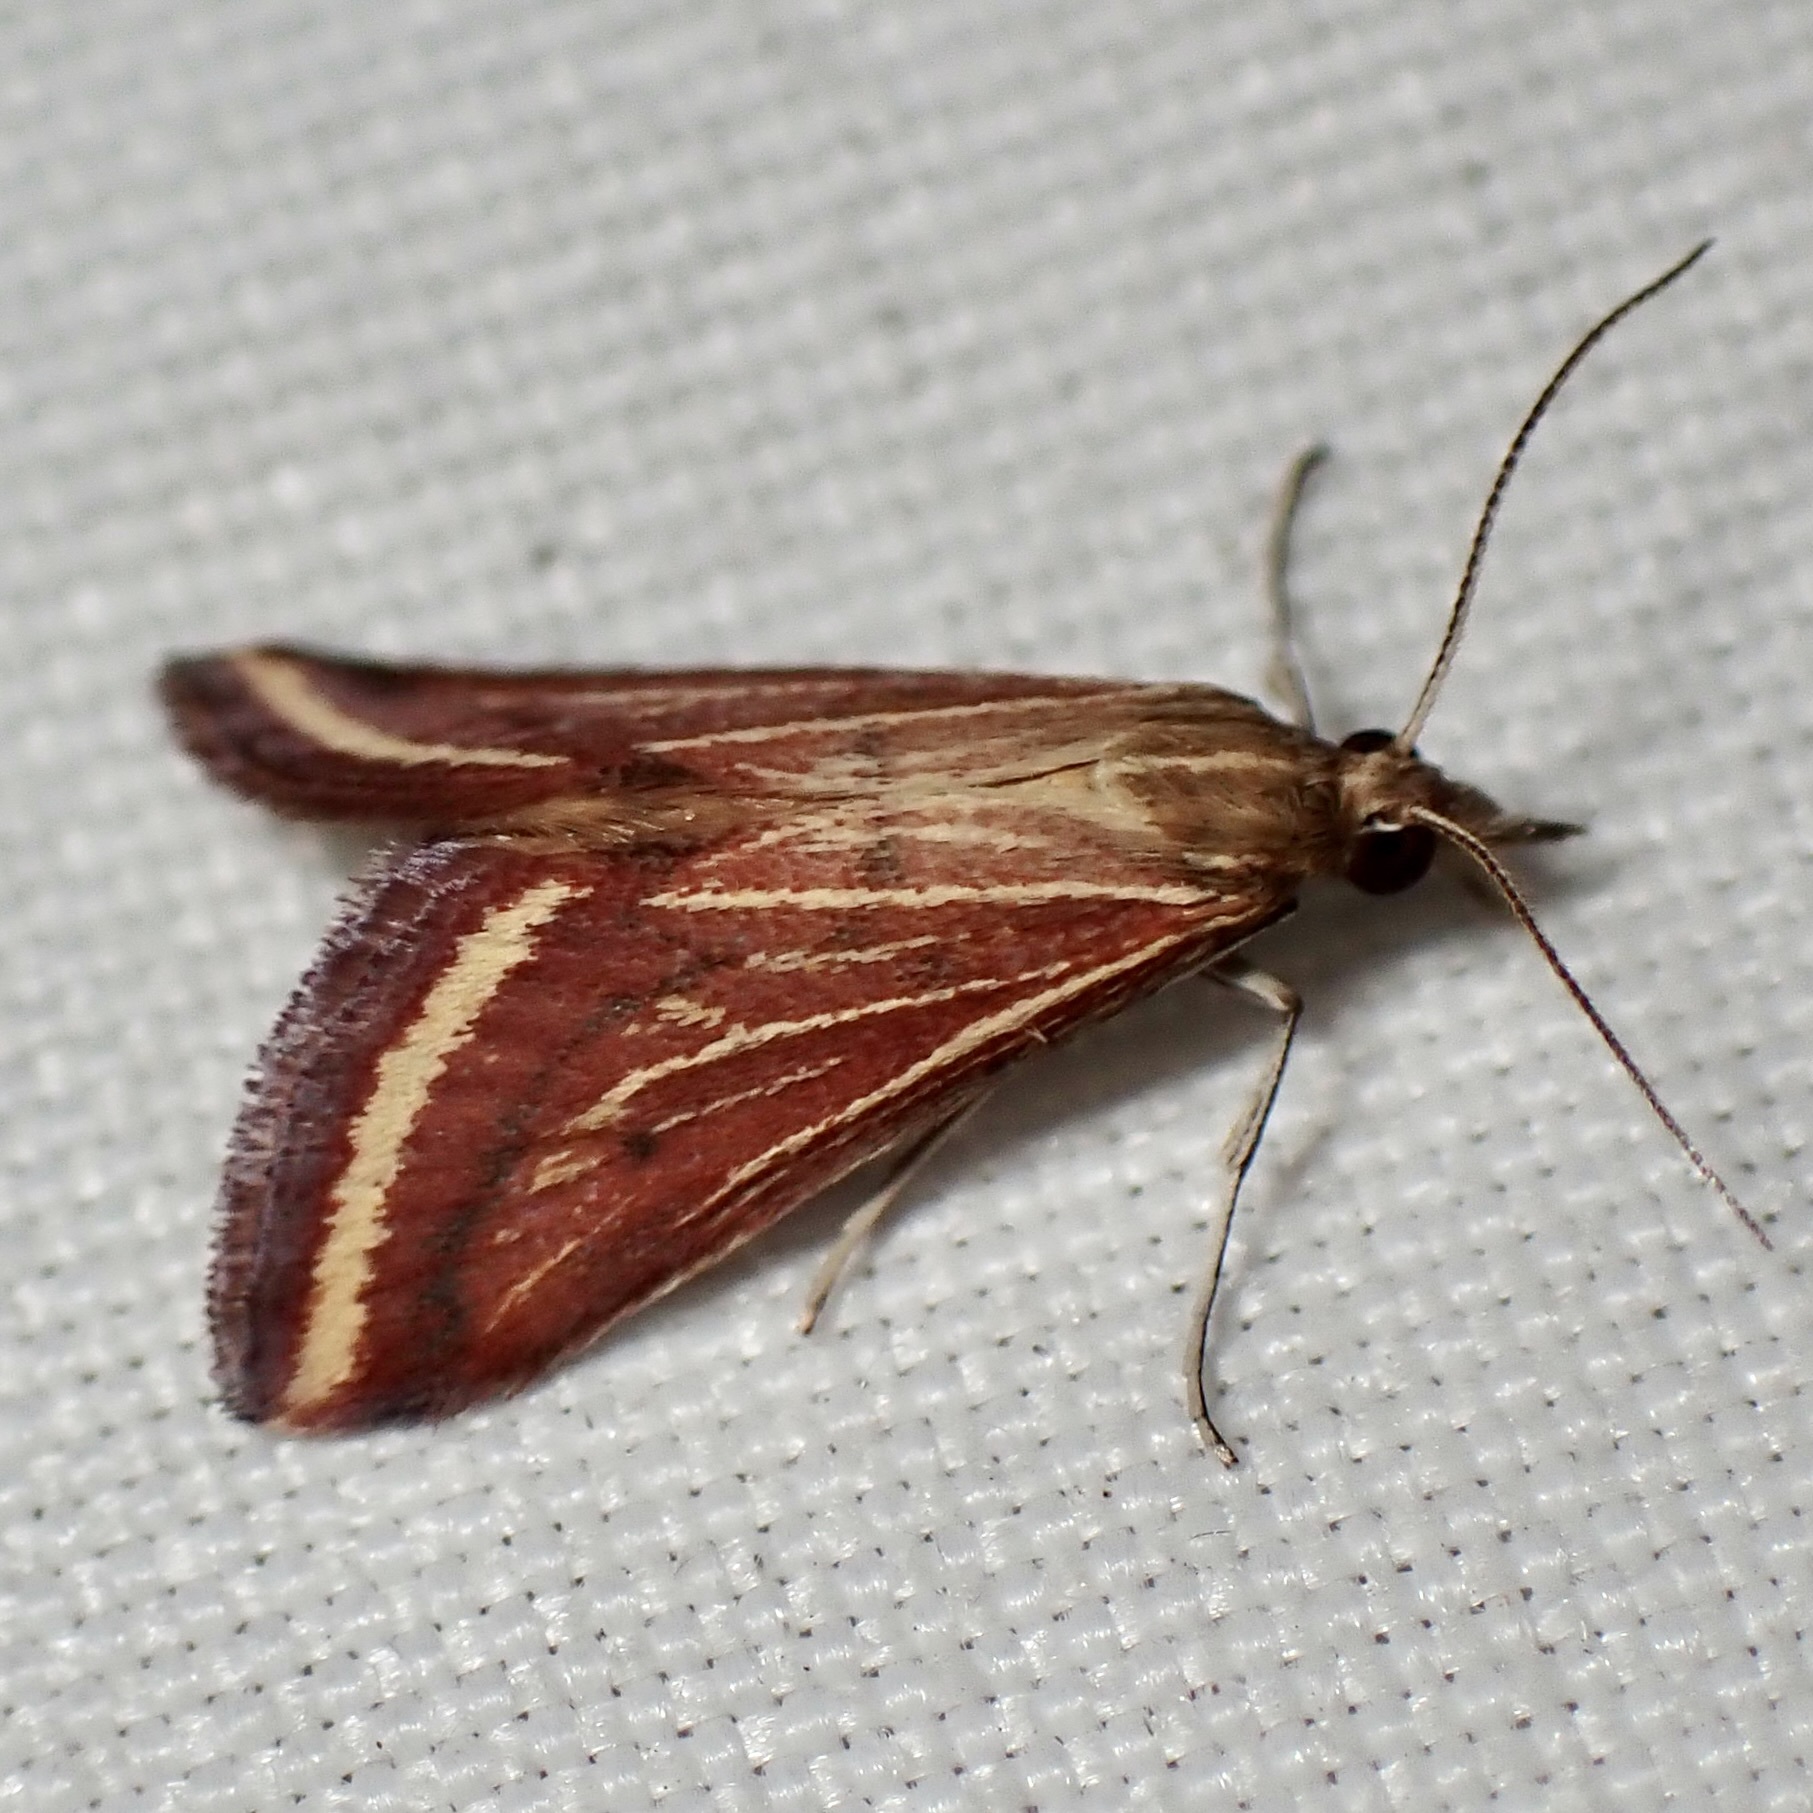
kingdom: Animalia
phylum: Arthropoda
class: Insecta
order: Lepidoptera
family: Crambidae
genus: Microtheoris
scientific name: Microtheoris ophionalis
